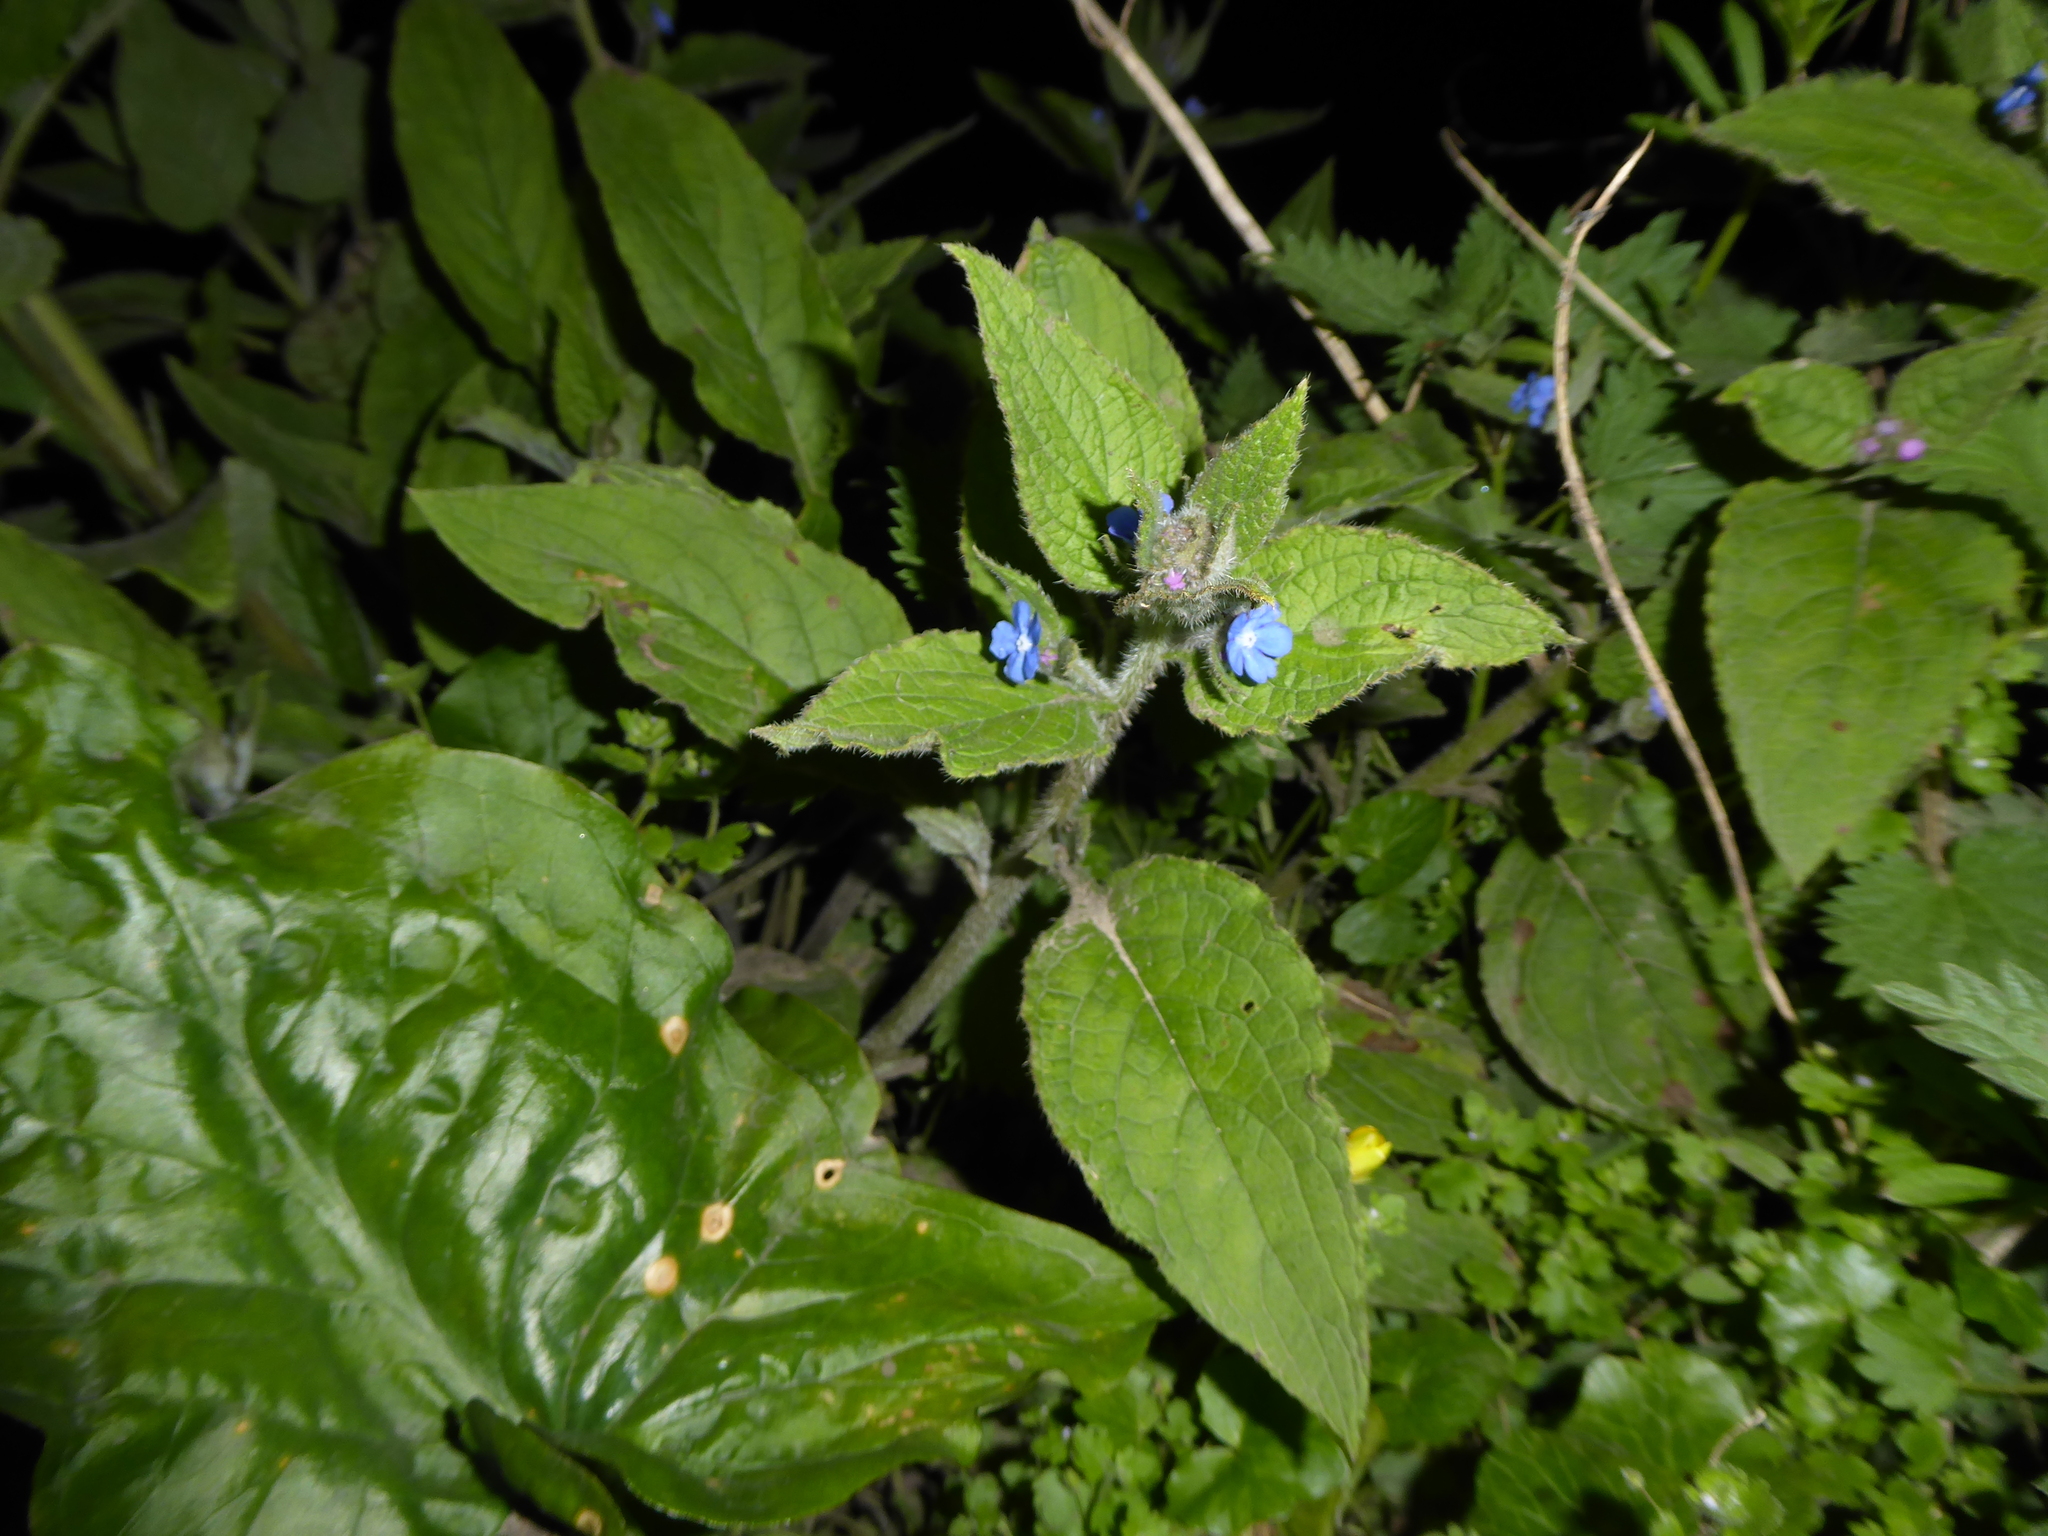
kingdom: Plantae
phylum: Tracheophyta
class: Magnoliopsida
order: Boraginales
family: Boraginaceae
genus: Pentaglottis
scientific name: Pentaglottis sempervirens
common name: Green alkanet
